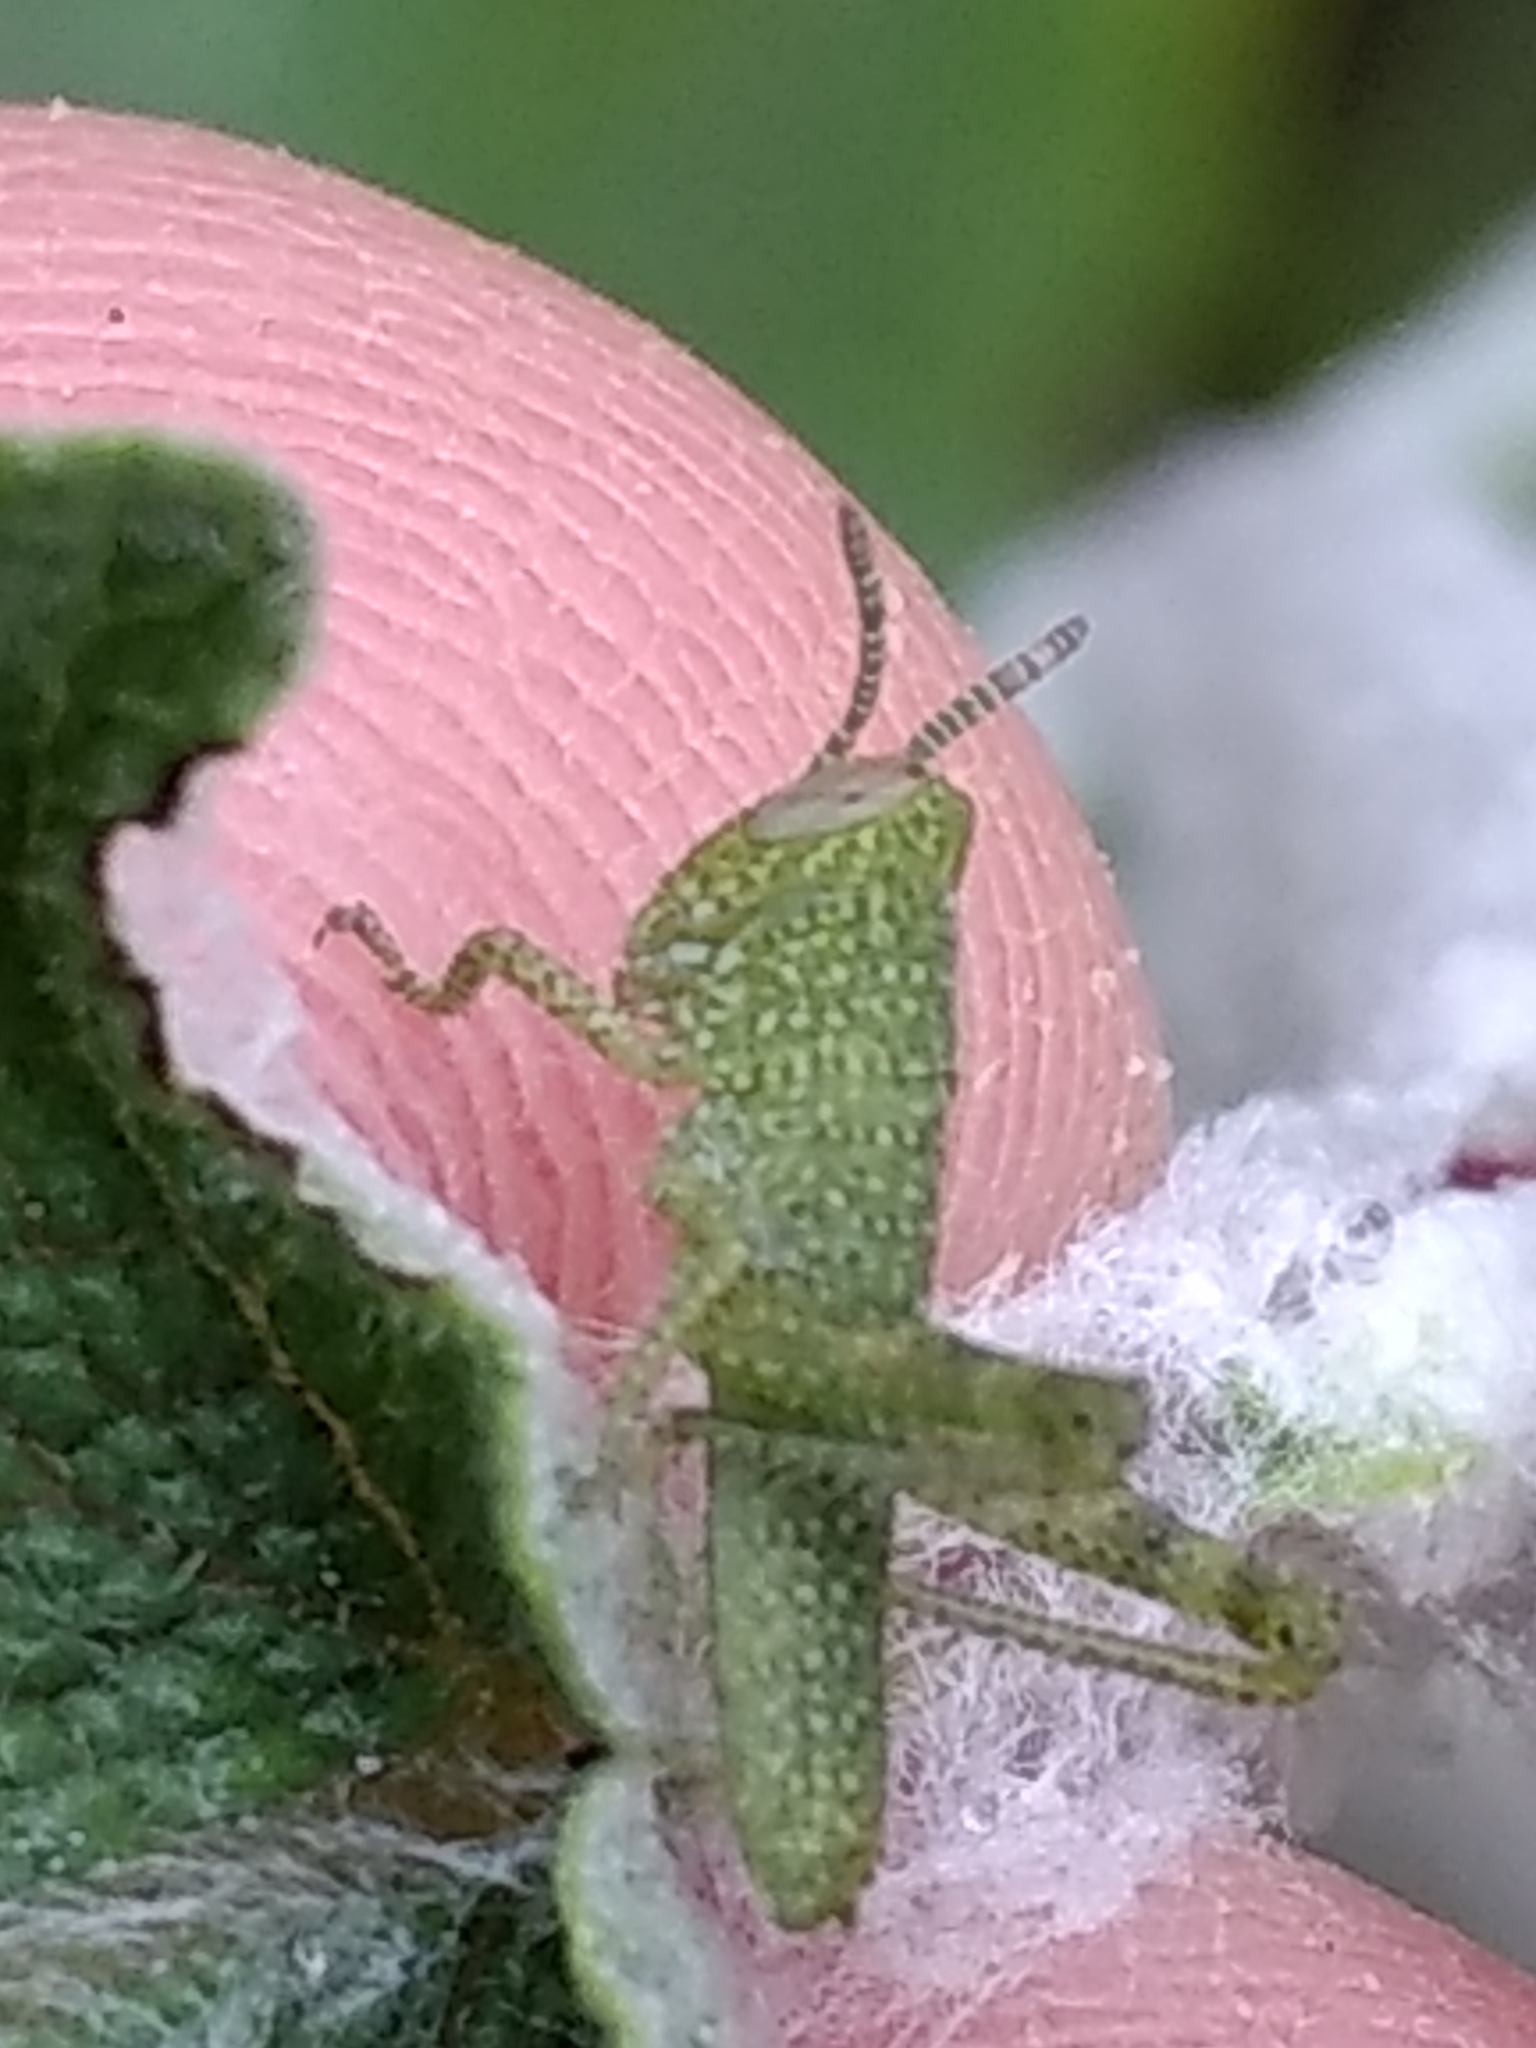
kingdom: Animalia
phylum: Arthropoda
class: Insecta
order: Orthoptera
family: Acrididae
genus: Schistocerca
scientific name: Schistocerca nitens
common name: Vagrant grasshopper
